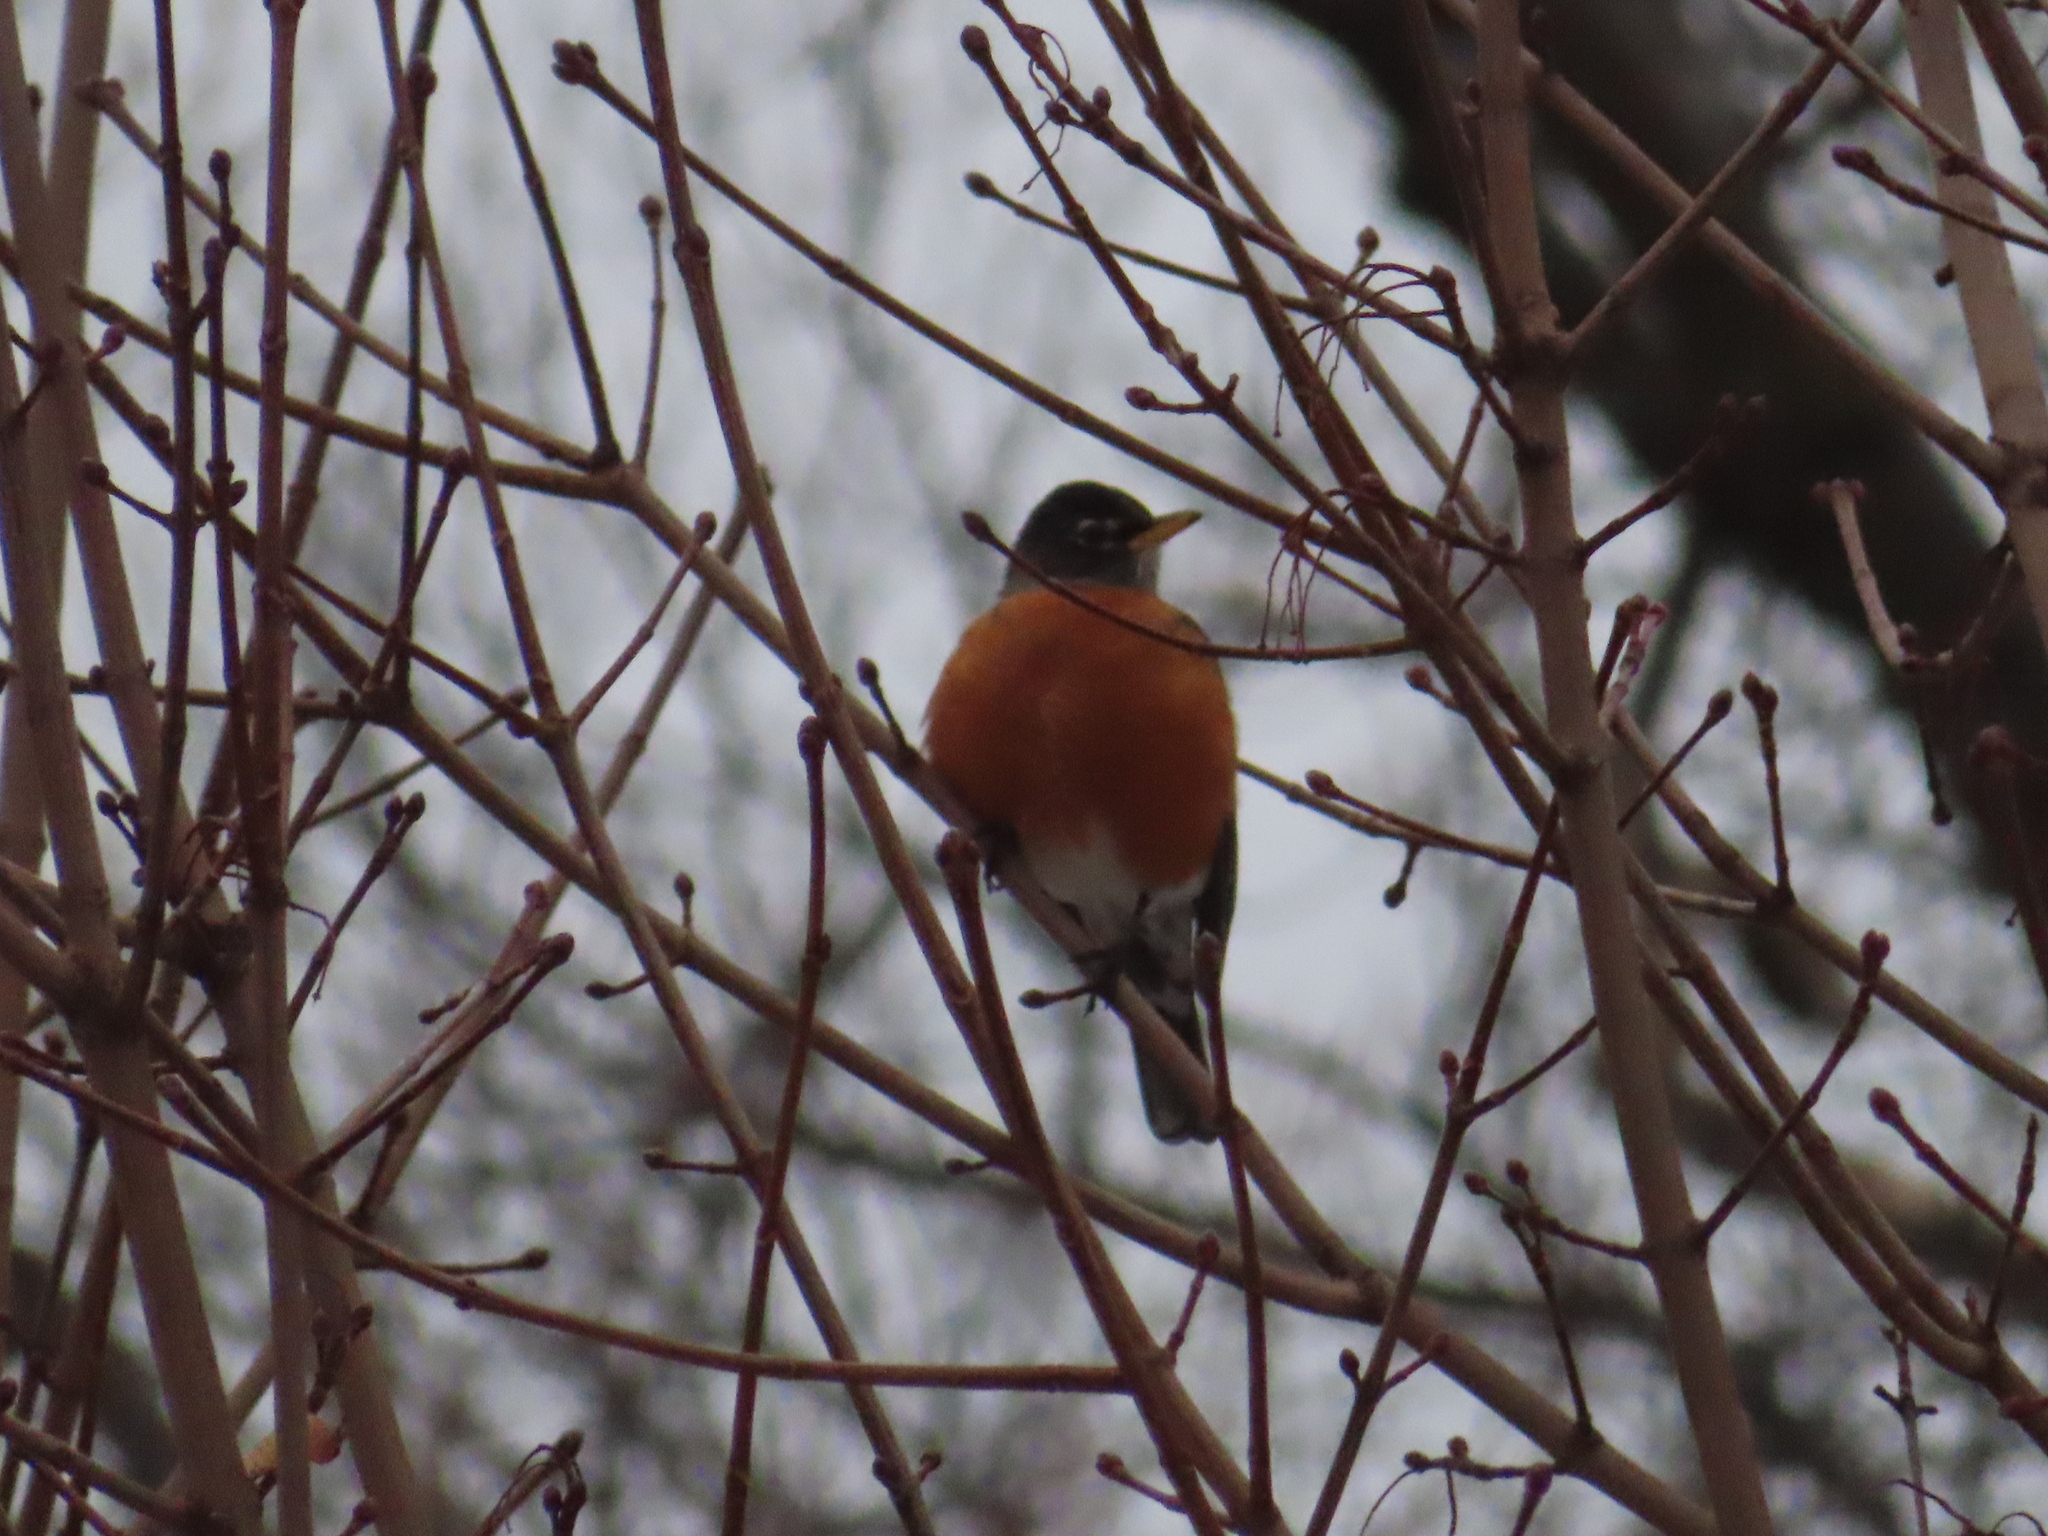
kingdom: Animalia
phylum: Chordata
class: Aves
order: Passeriformes
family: Turdidae
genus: Turdus
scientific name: Turdus migratorius
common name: American robin
